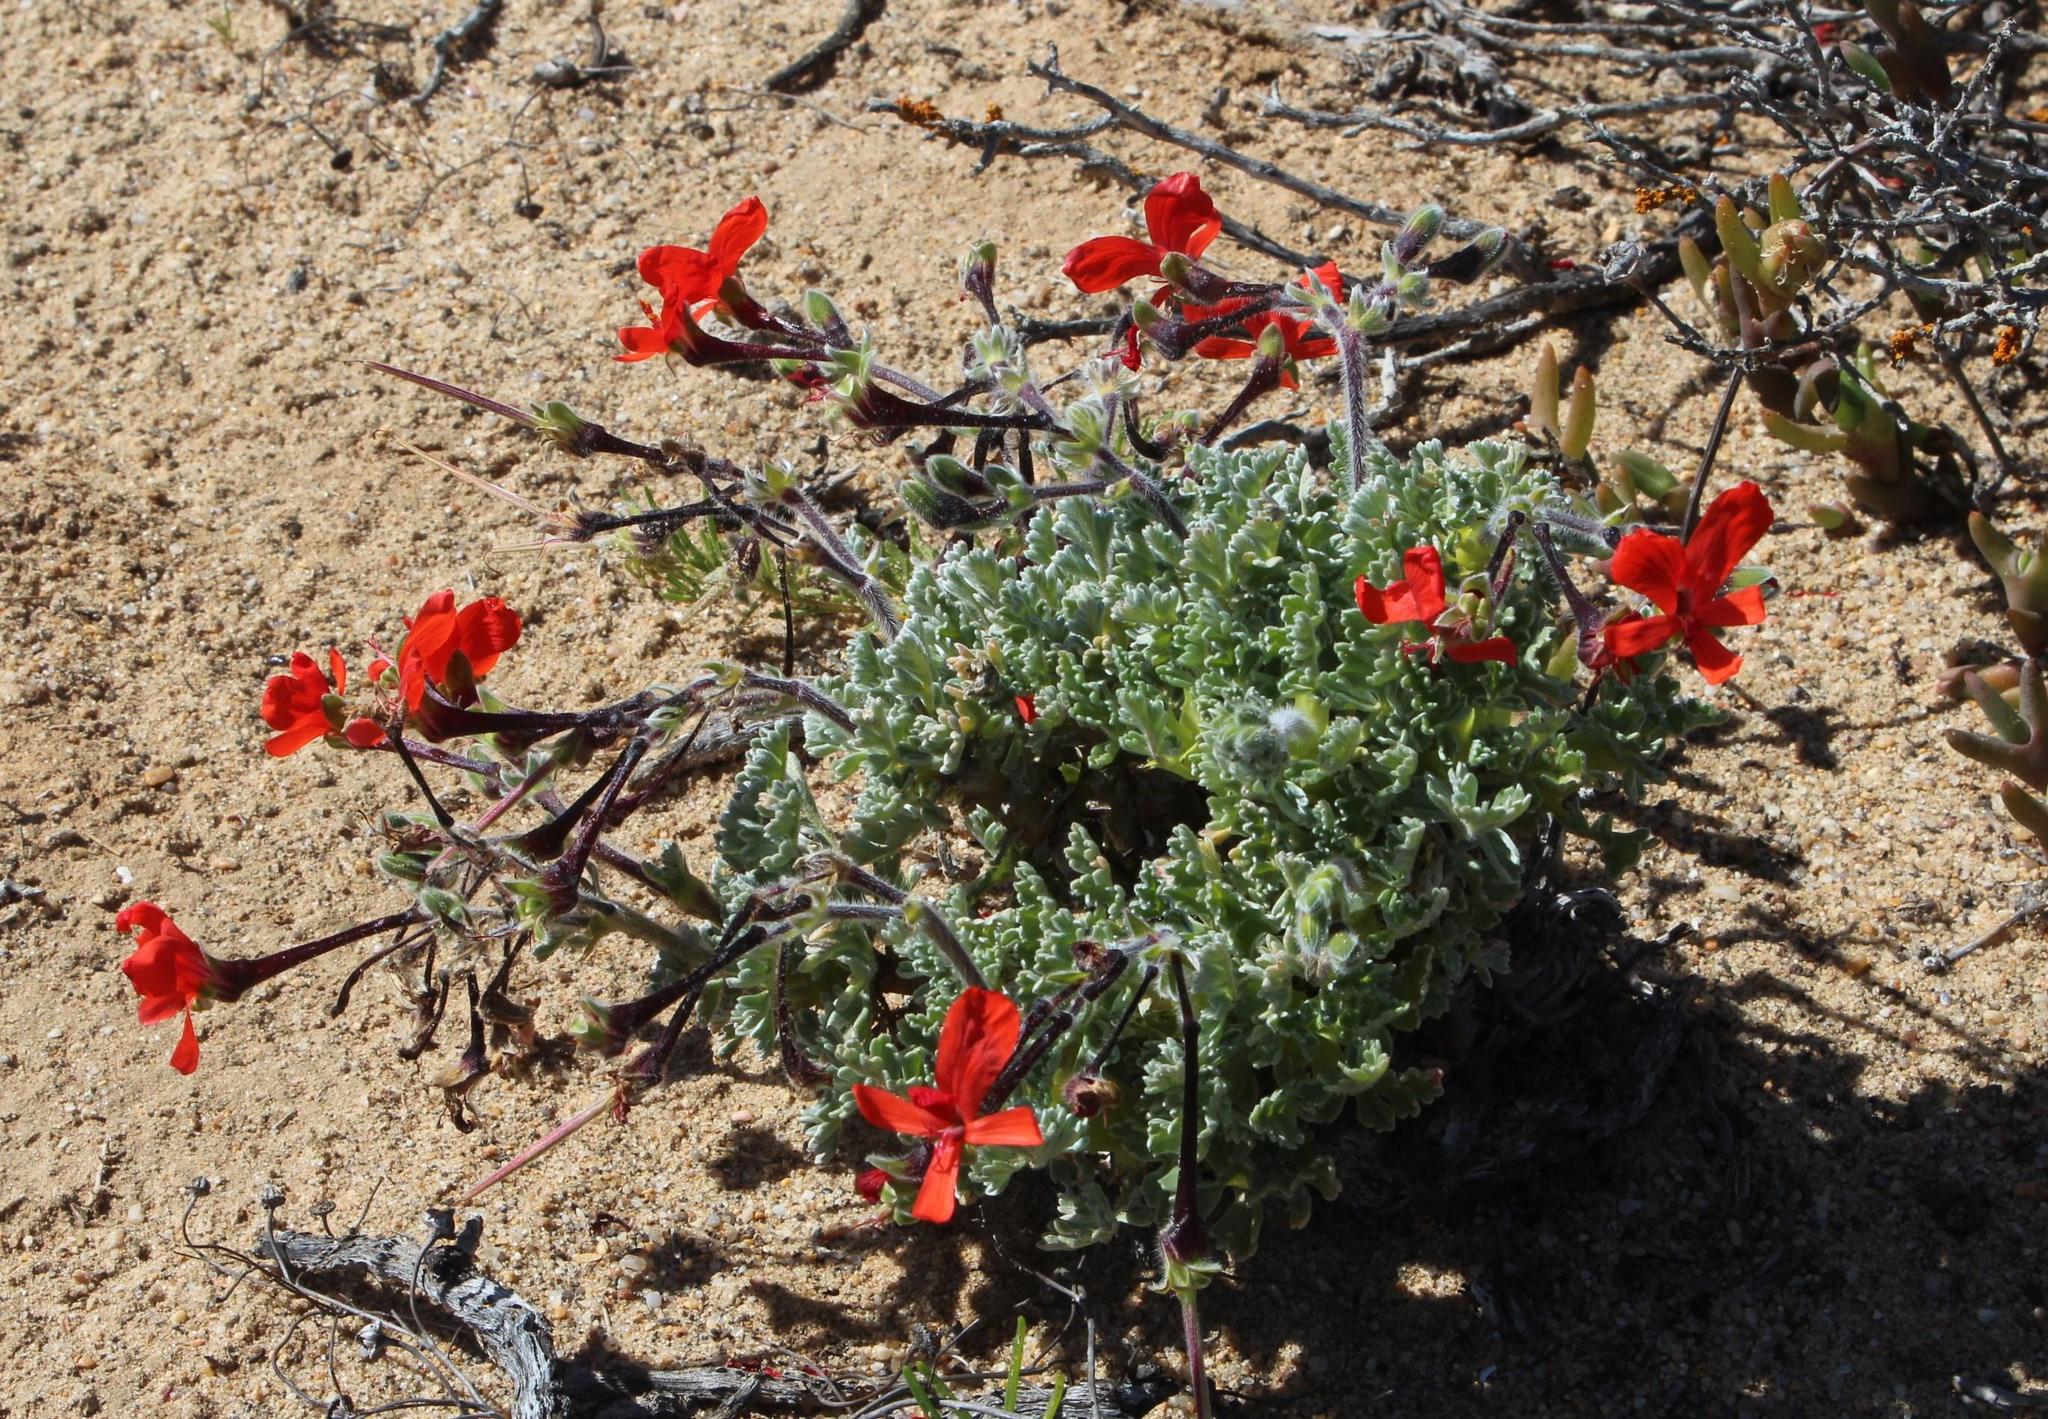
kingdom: Plantae
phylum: Tracheophyta
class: Magnoliopsida
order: Geraniales
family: Geraniaceae
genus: Pelargonium
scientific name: Pelargonium fulgidum
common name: Celandine-leaf pelargonium
